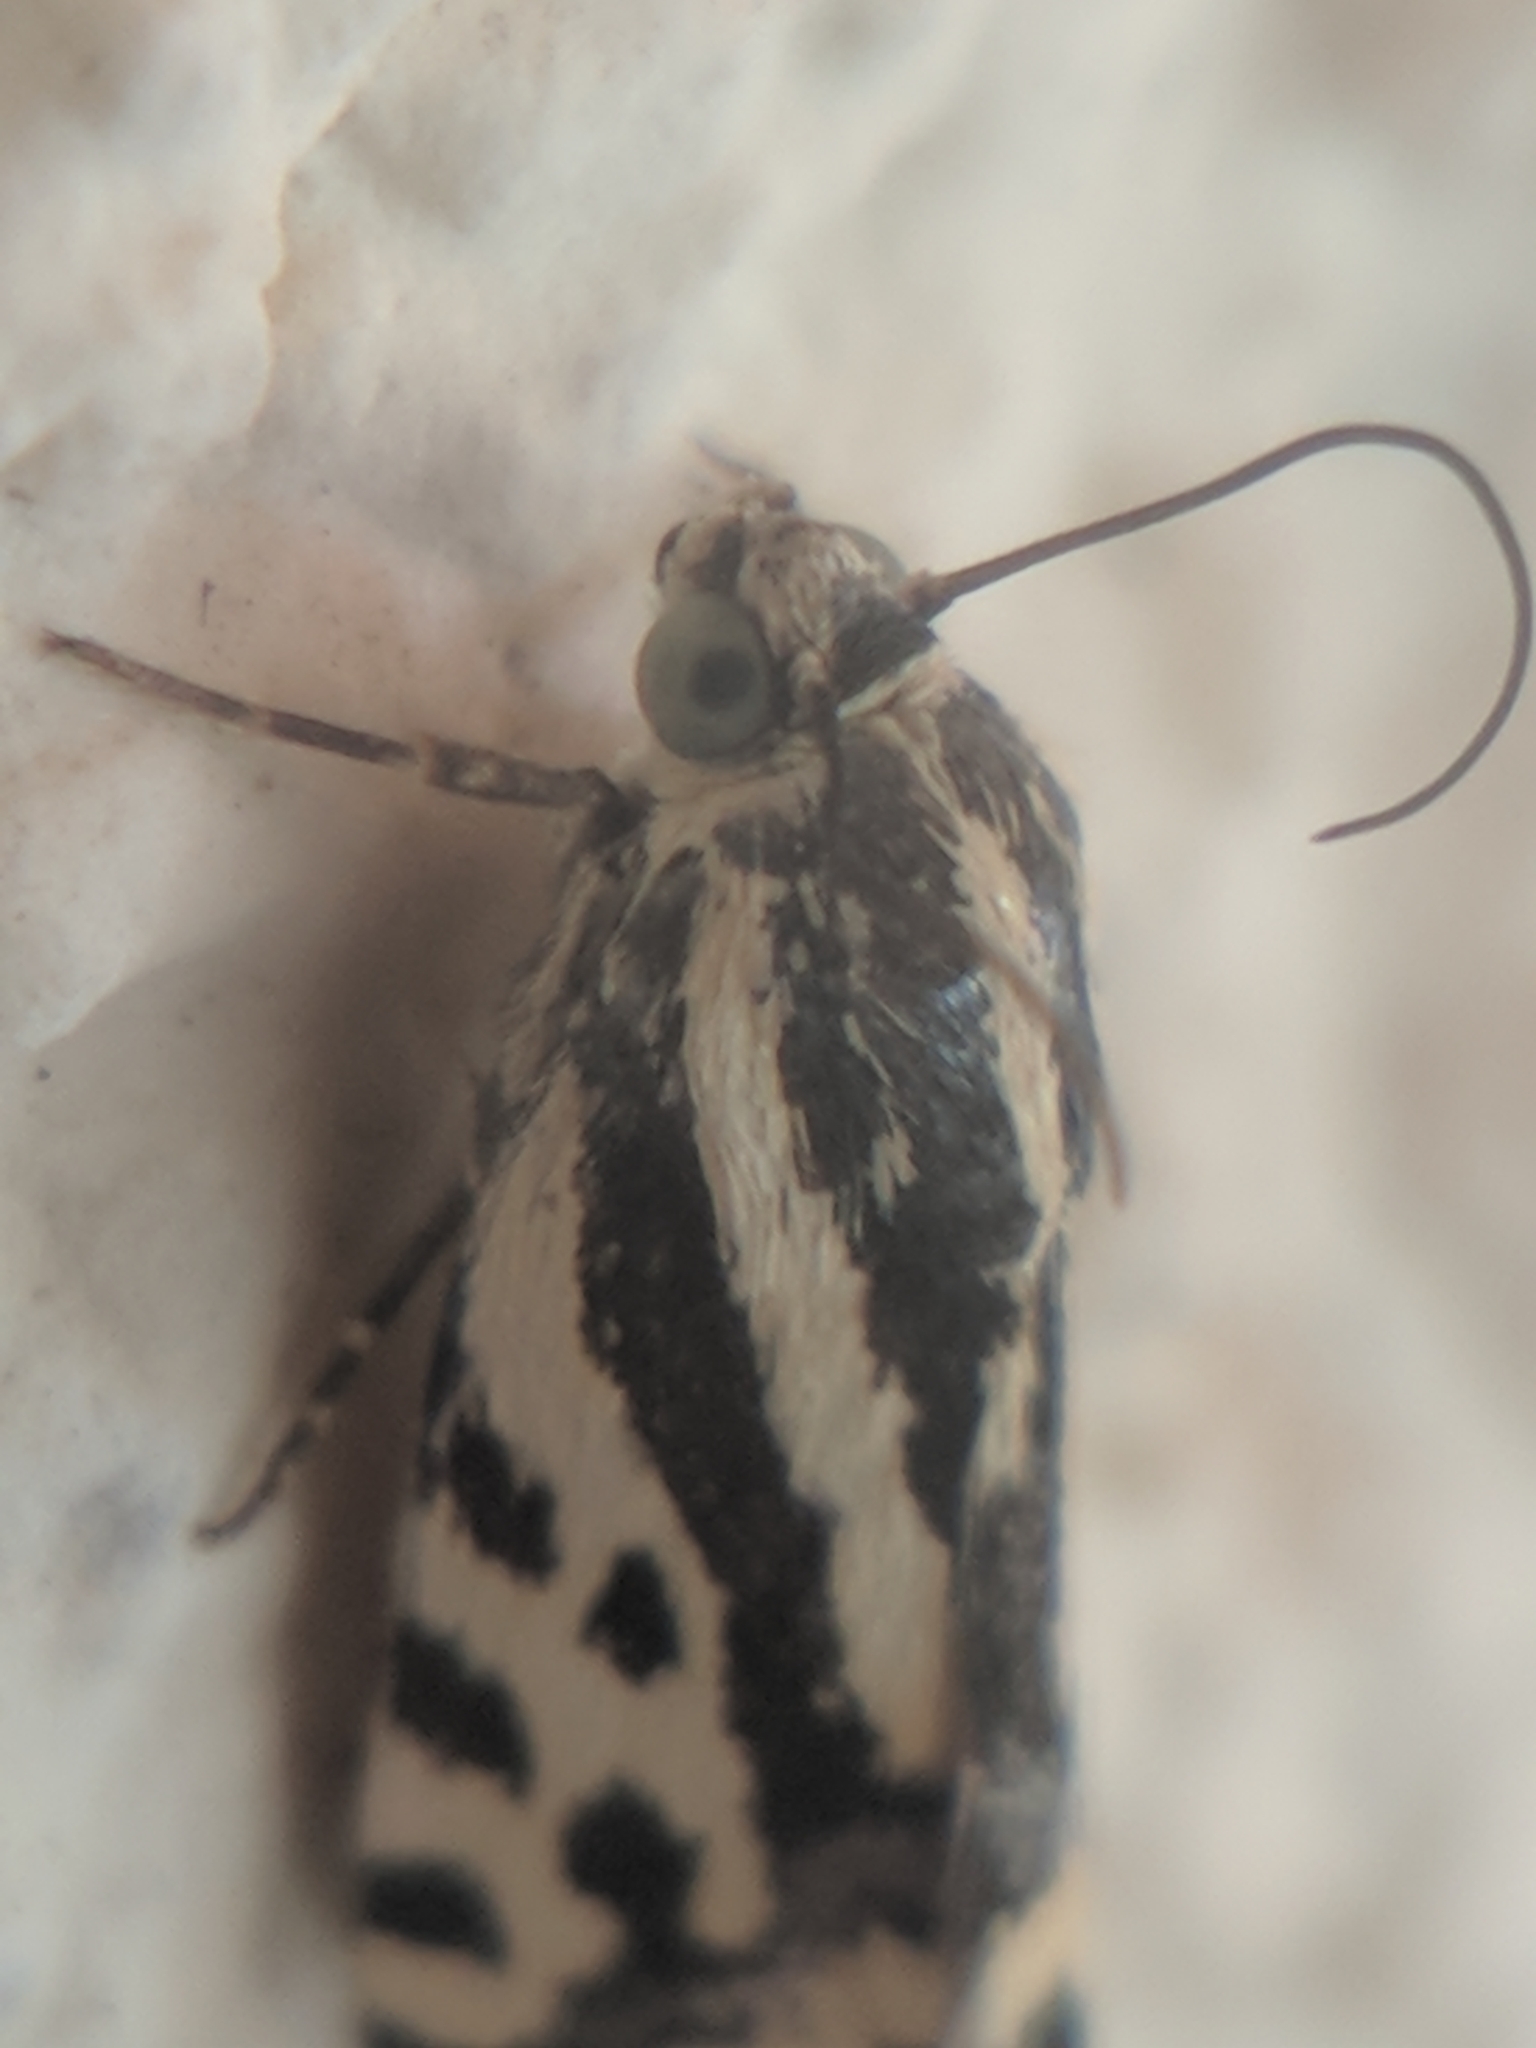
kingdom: Animalia
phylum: Arthropoda
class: Insecta
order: Lepidoptera
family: Noctuidae
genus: Acontia
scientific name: Acontia trabealis
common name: Spotted sulphur
